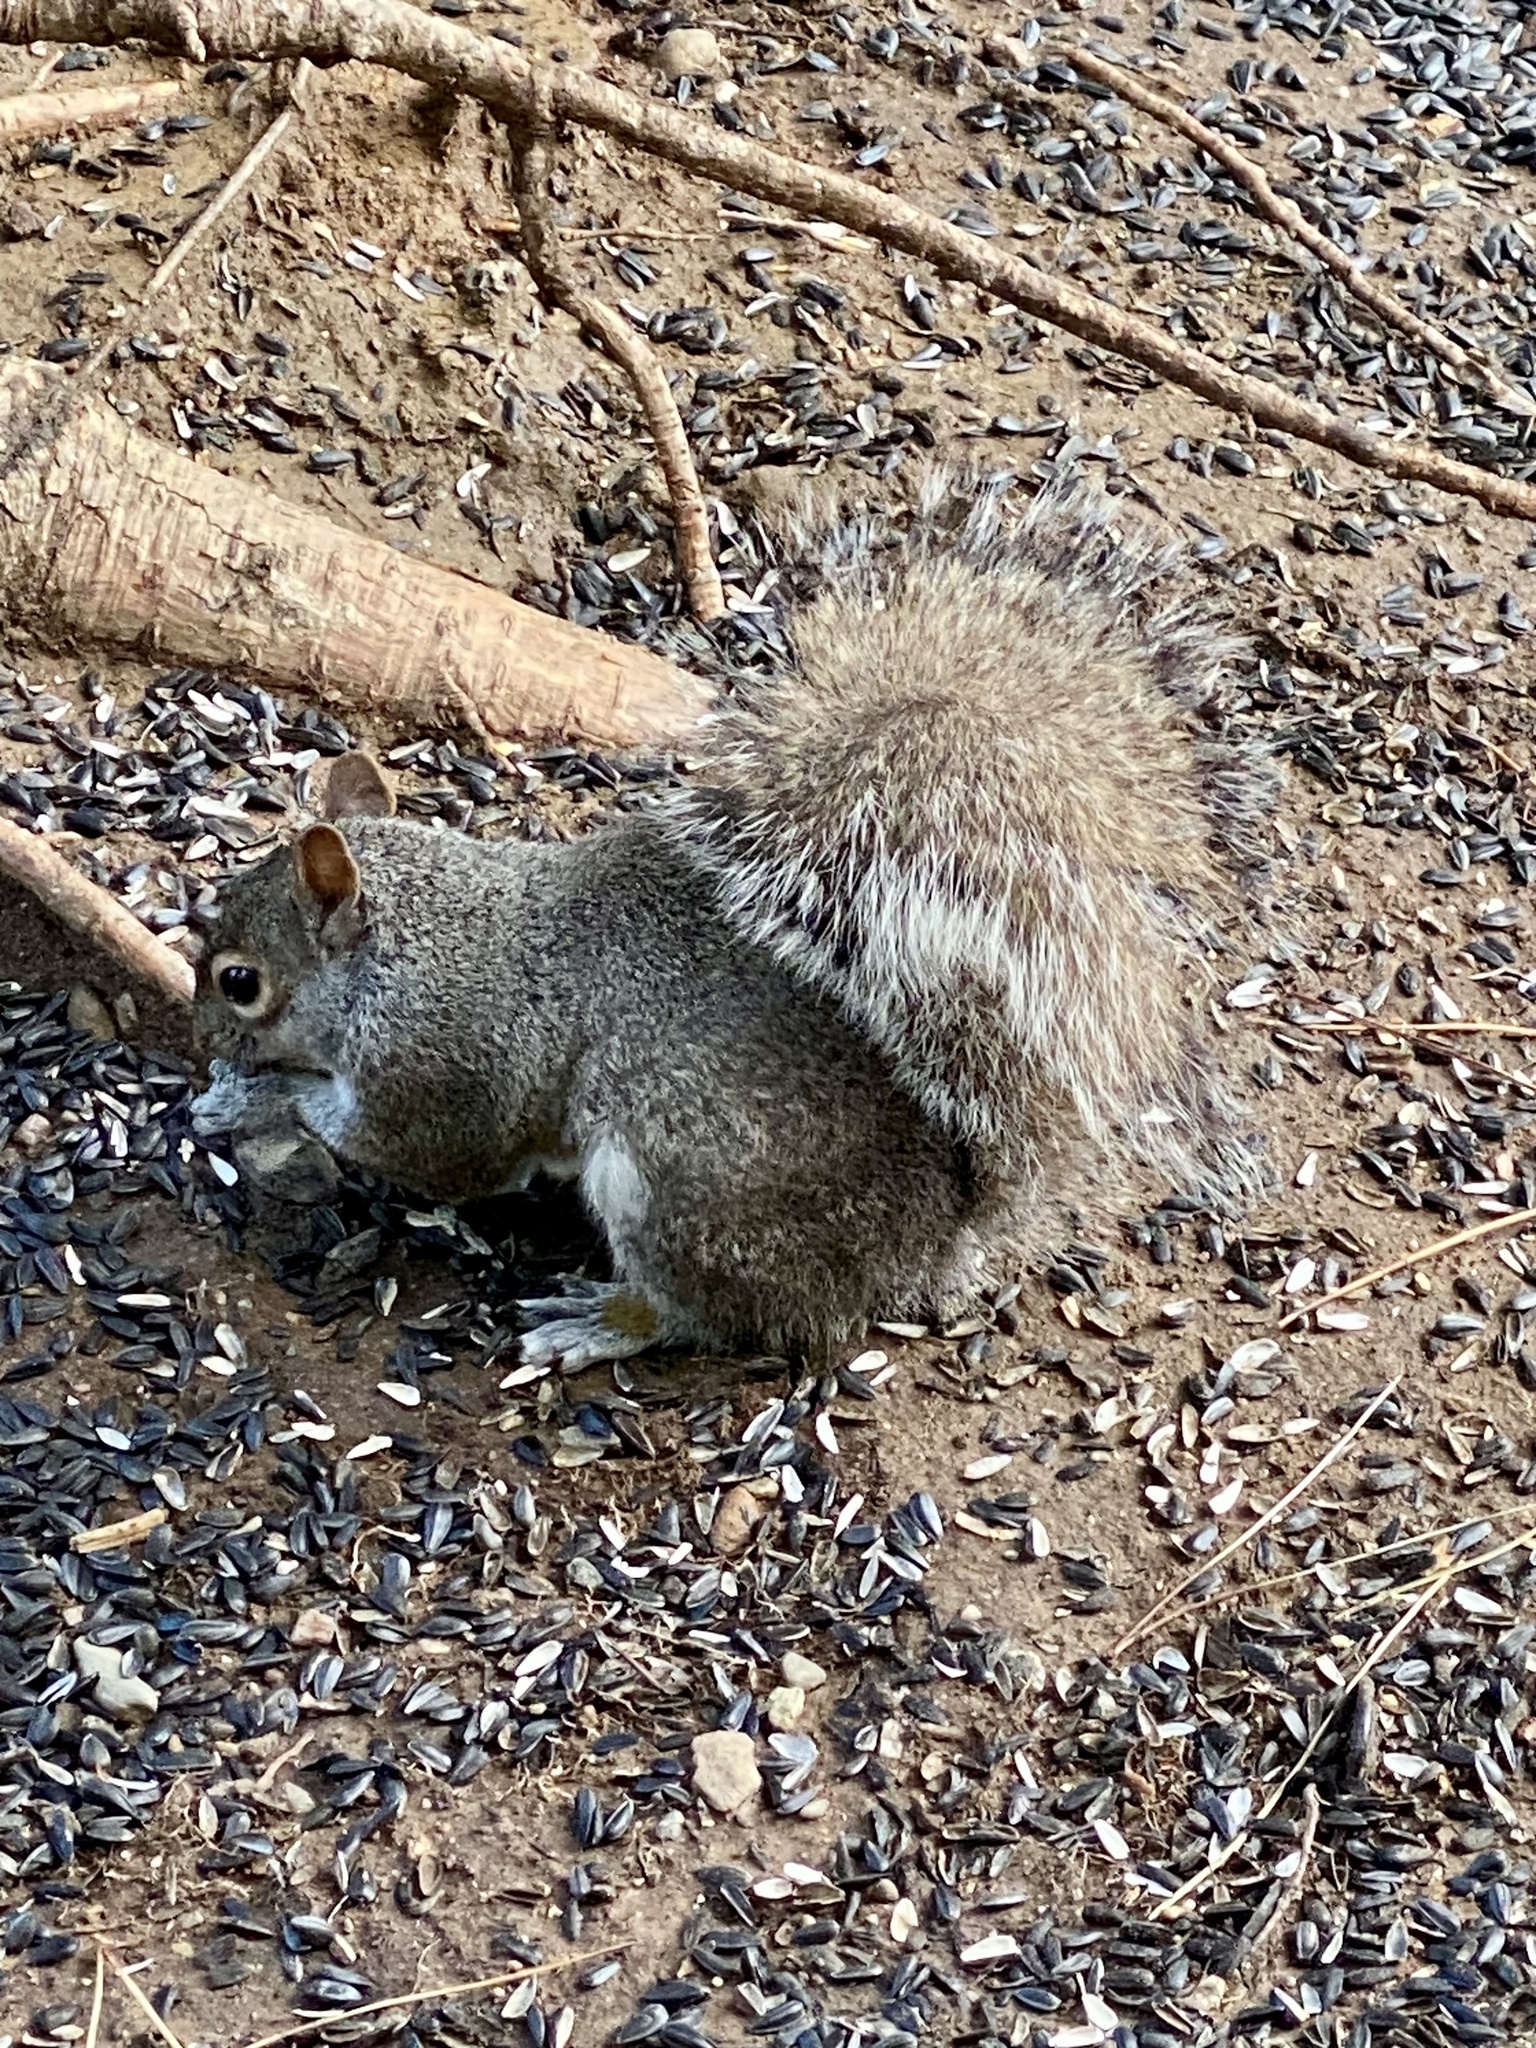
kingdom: Animalia
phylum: Chordata
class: Mammalia
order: Rodentia
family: Sciuridae
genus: Sciurus
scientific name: Sciurus carolinensis
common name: Eastern gray squirrel
